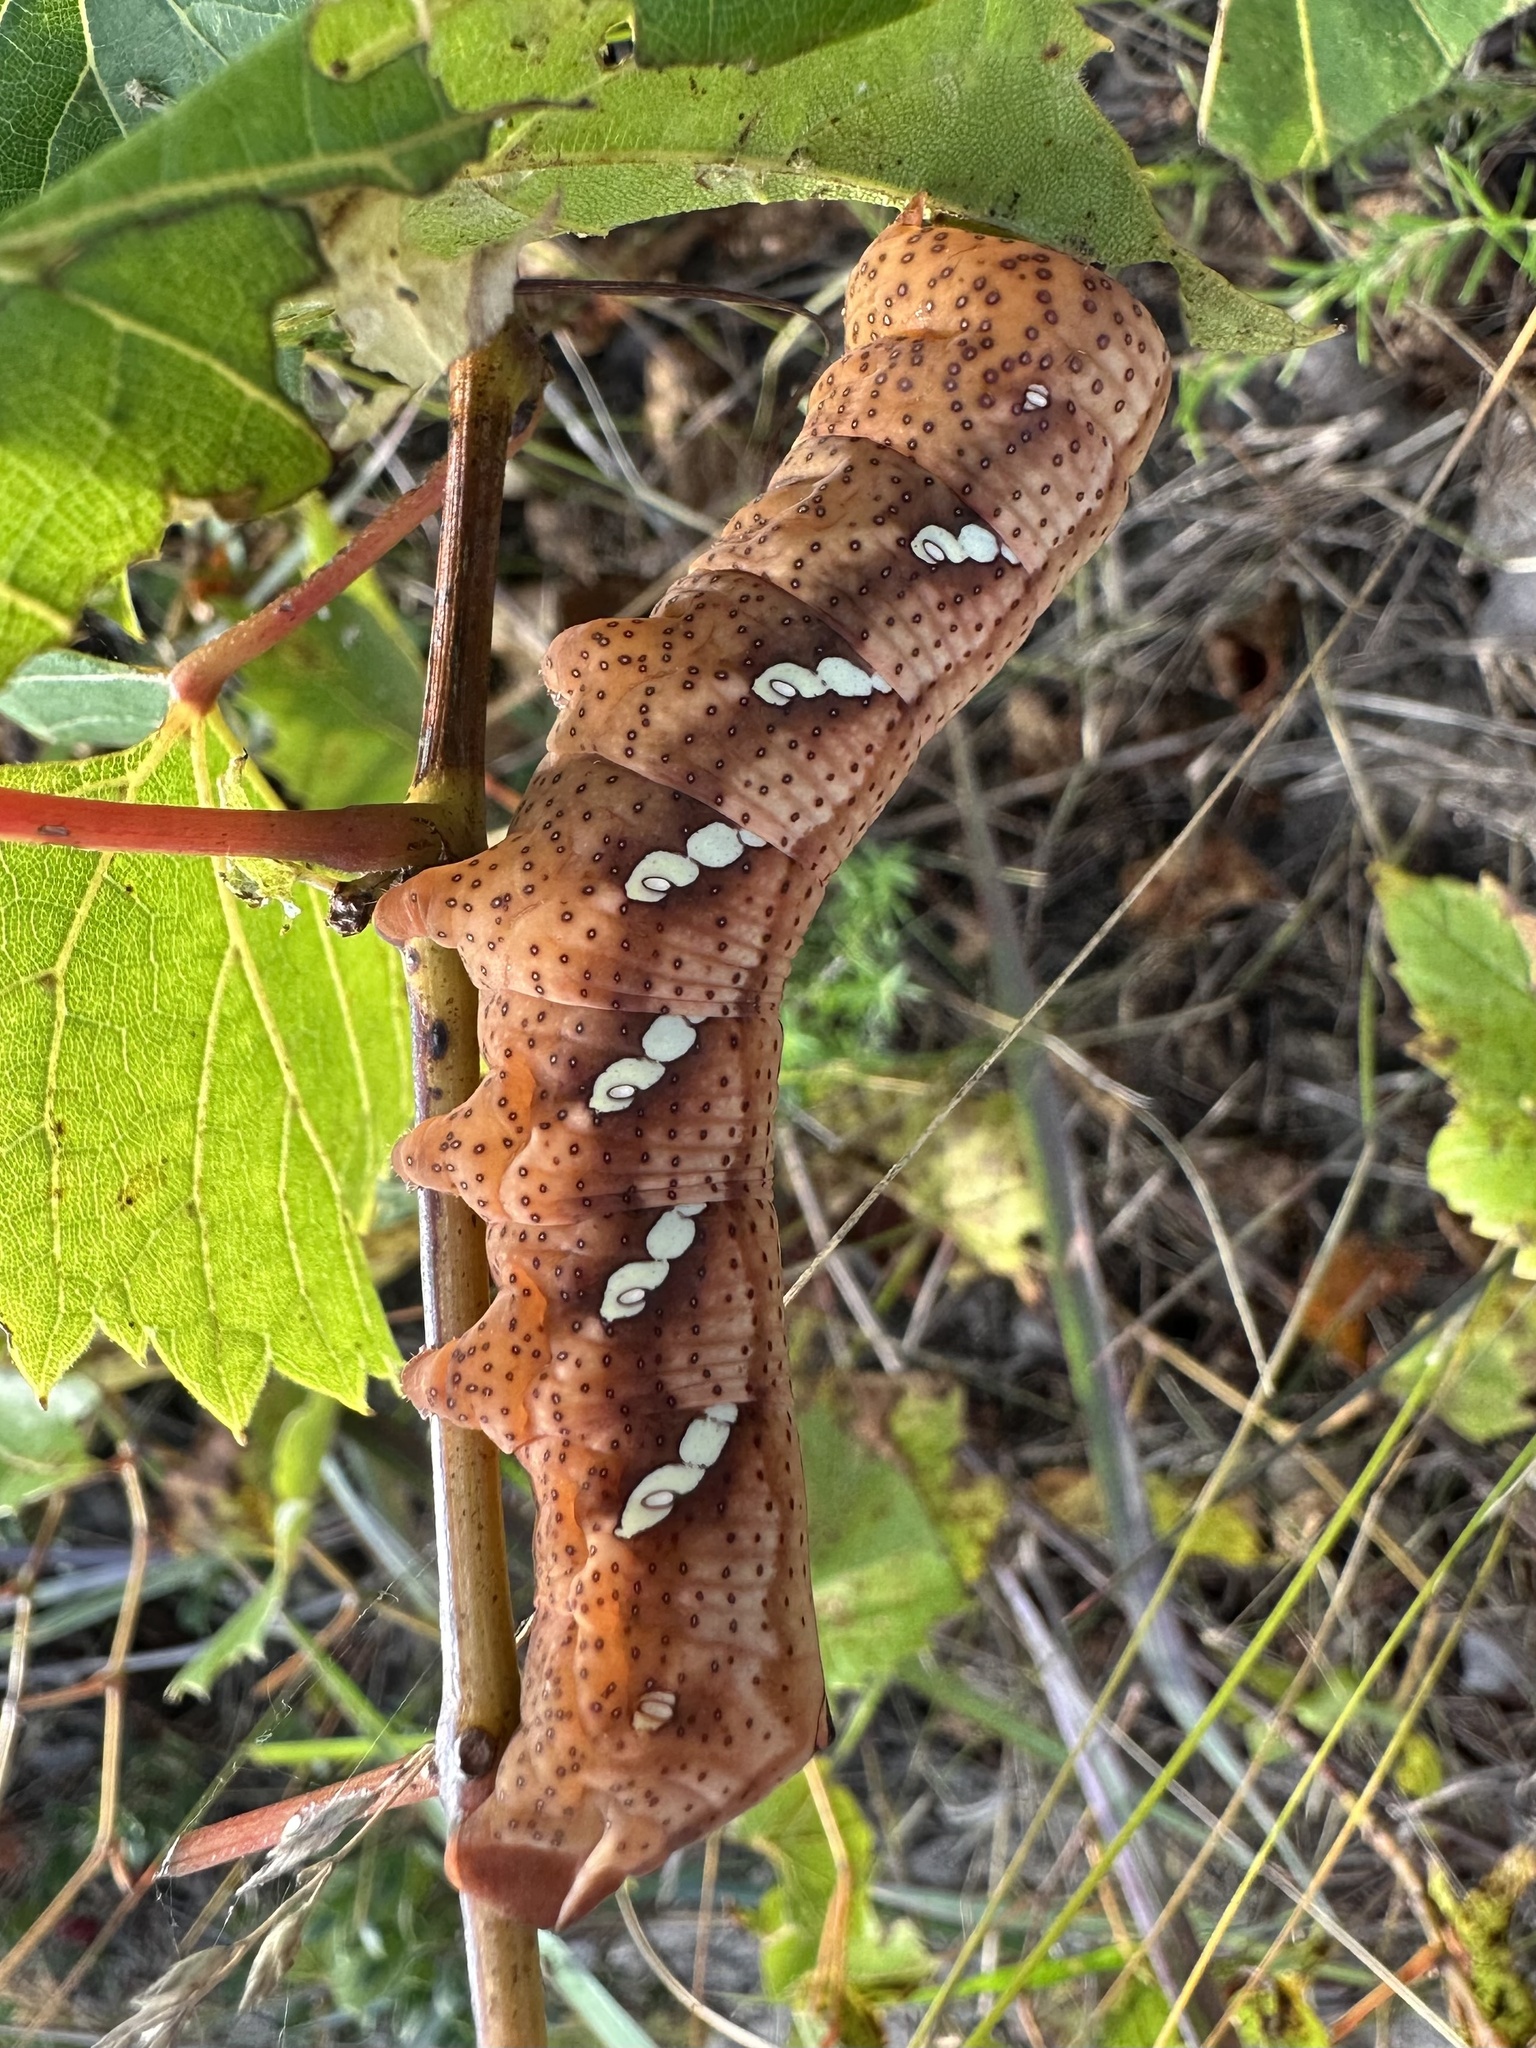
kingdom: Animalia
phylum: Arthropoda
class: Insecta
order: Lepidoptera
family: Sphingidae
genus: Eumorpha
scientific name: Eumorpha achemon
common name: Achemon sphinx
